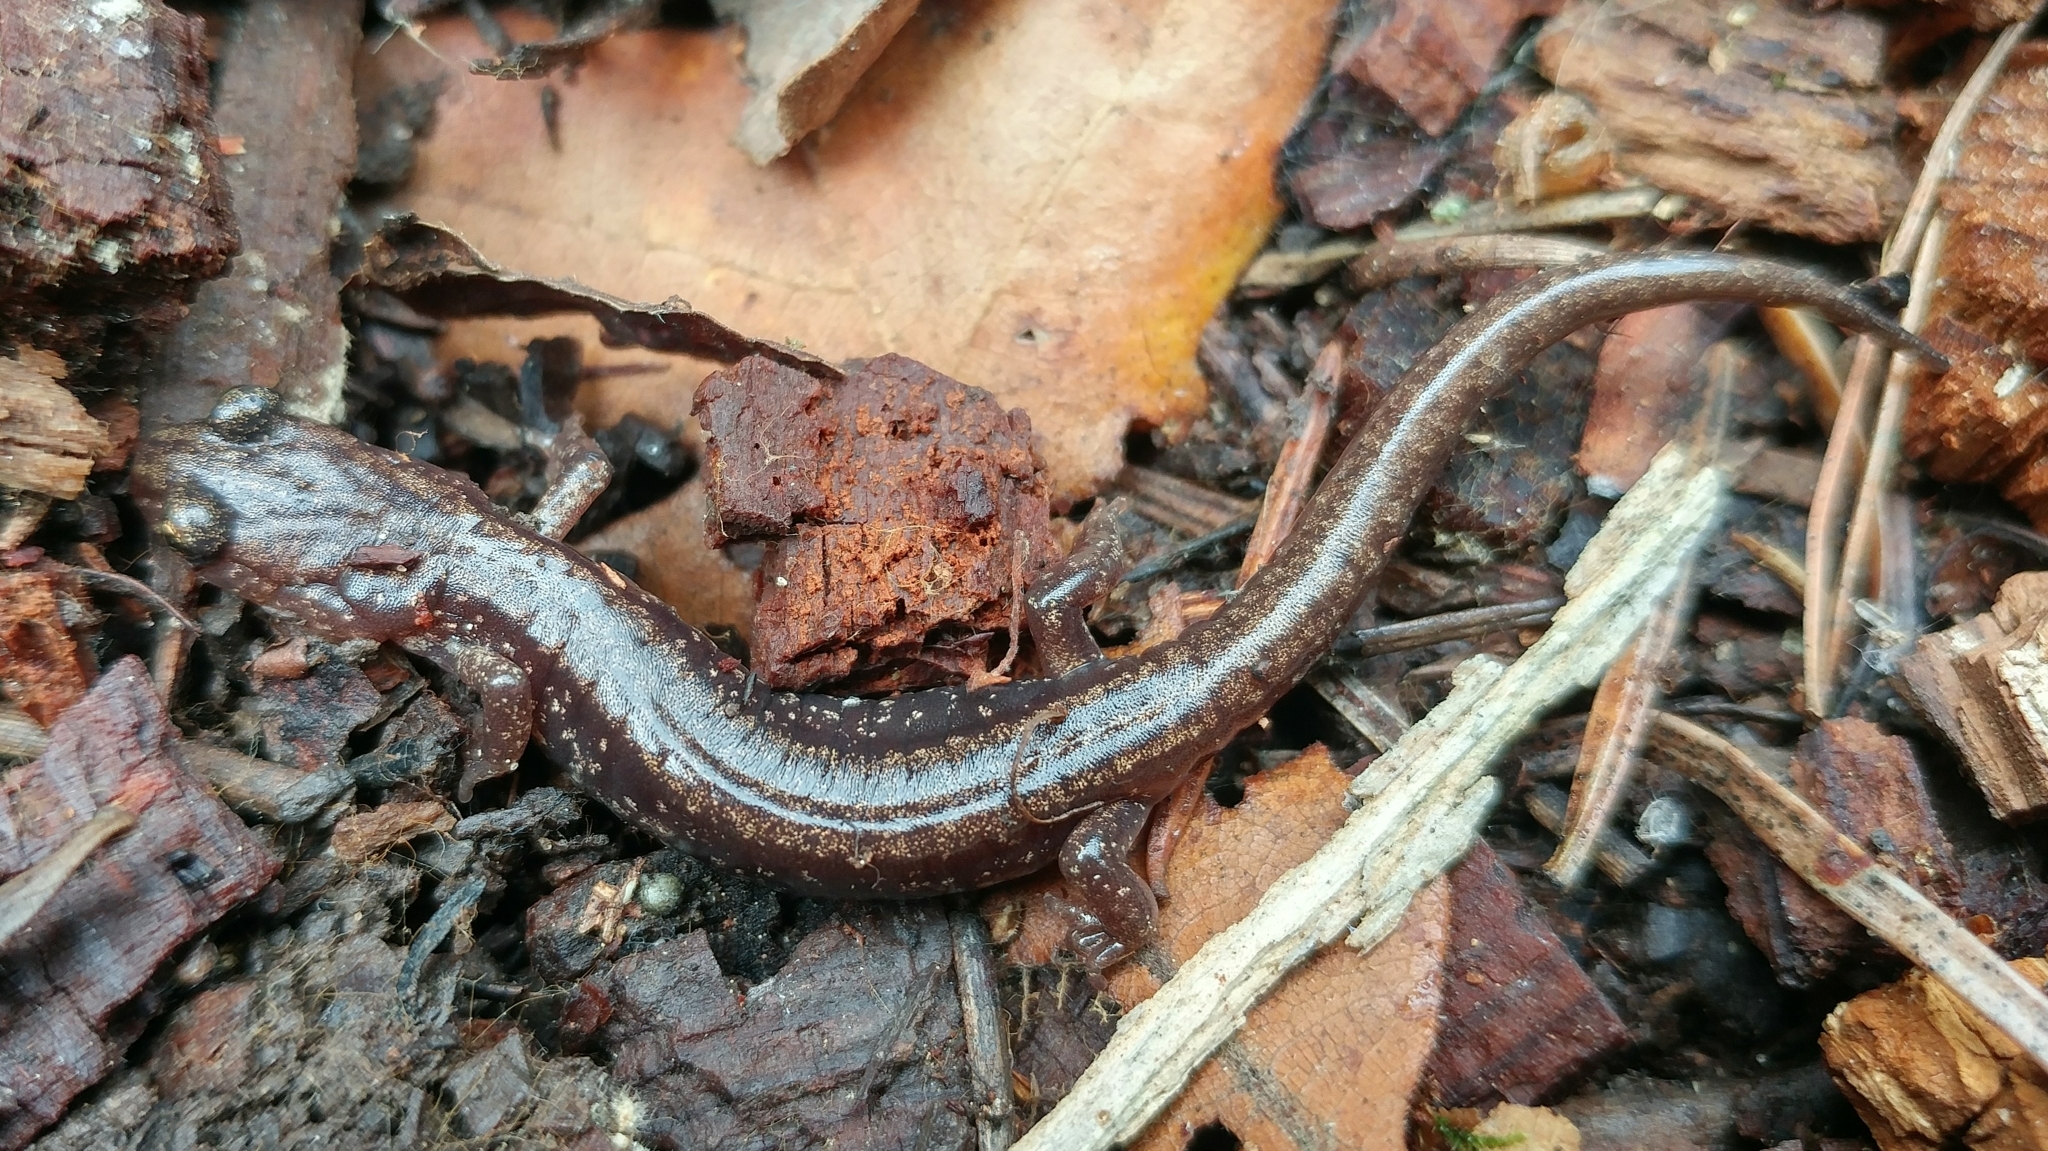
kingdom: Animalia
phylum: Chordata
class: Amphibia
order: Caudata
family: Plethodontidae
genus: Aneides
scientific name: Aneides hardii
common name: Sacramento mountain salamander
